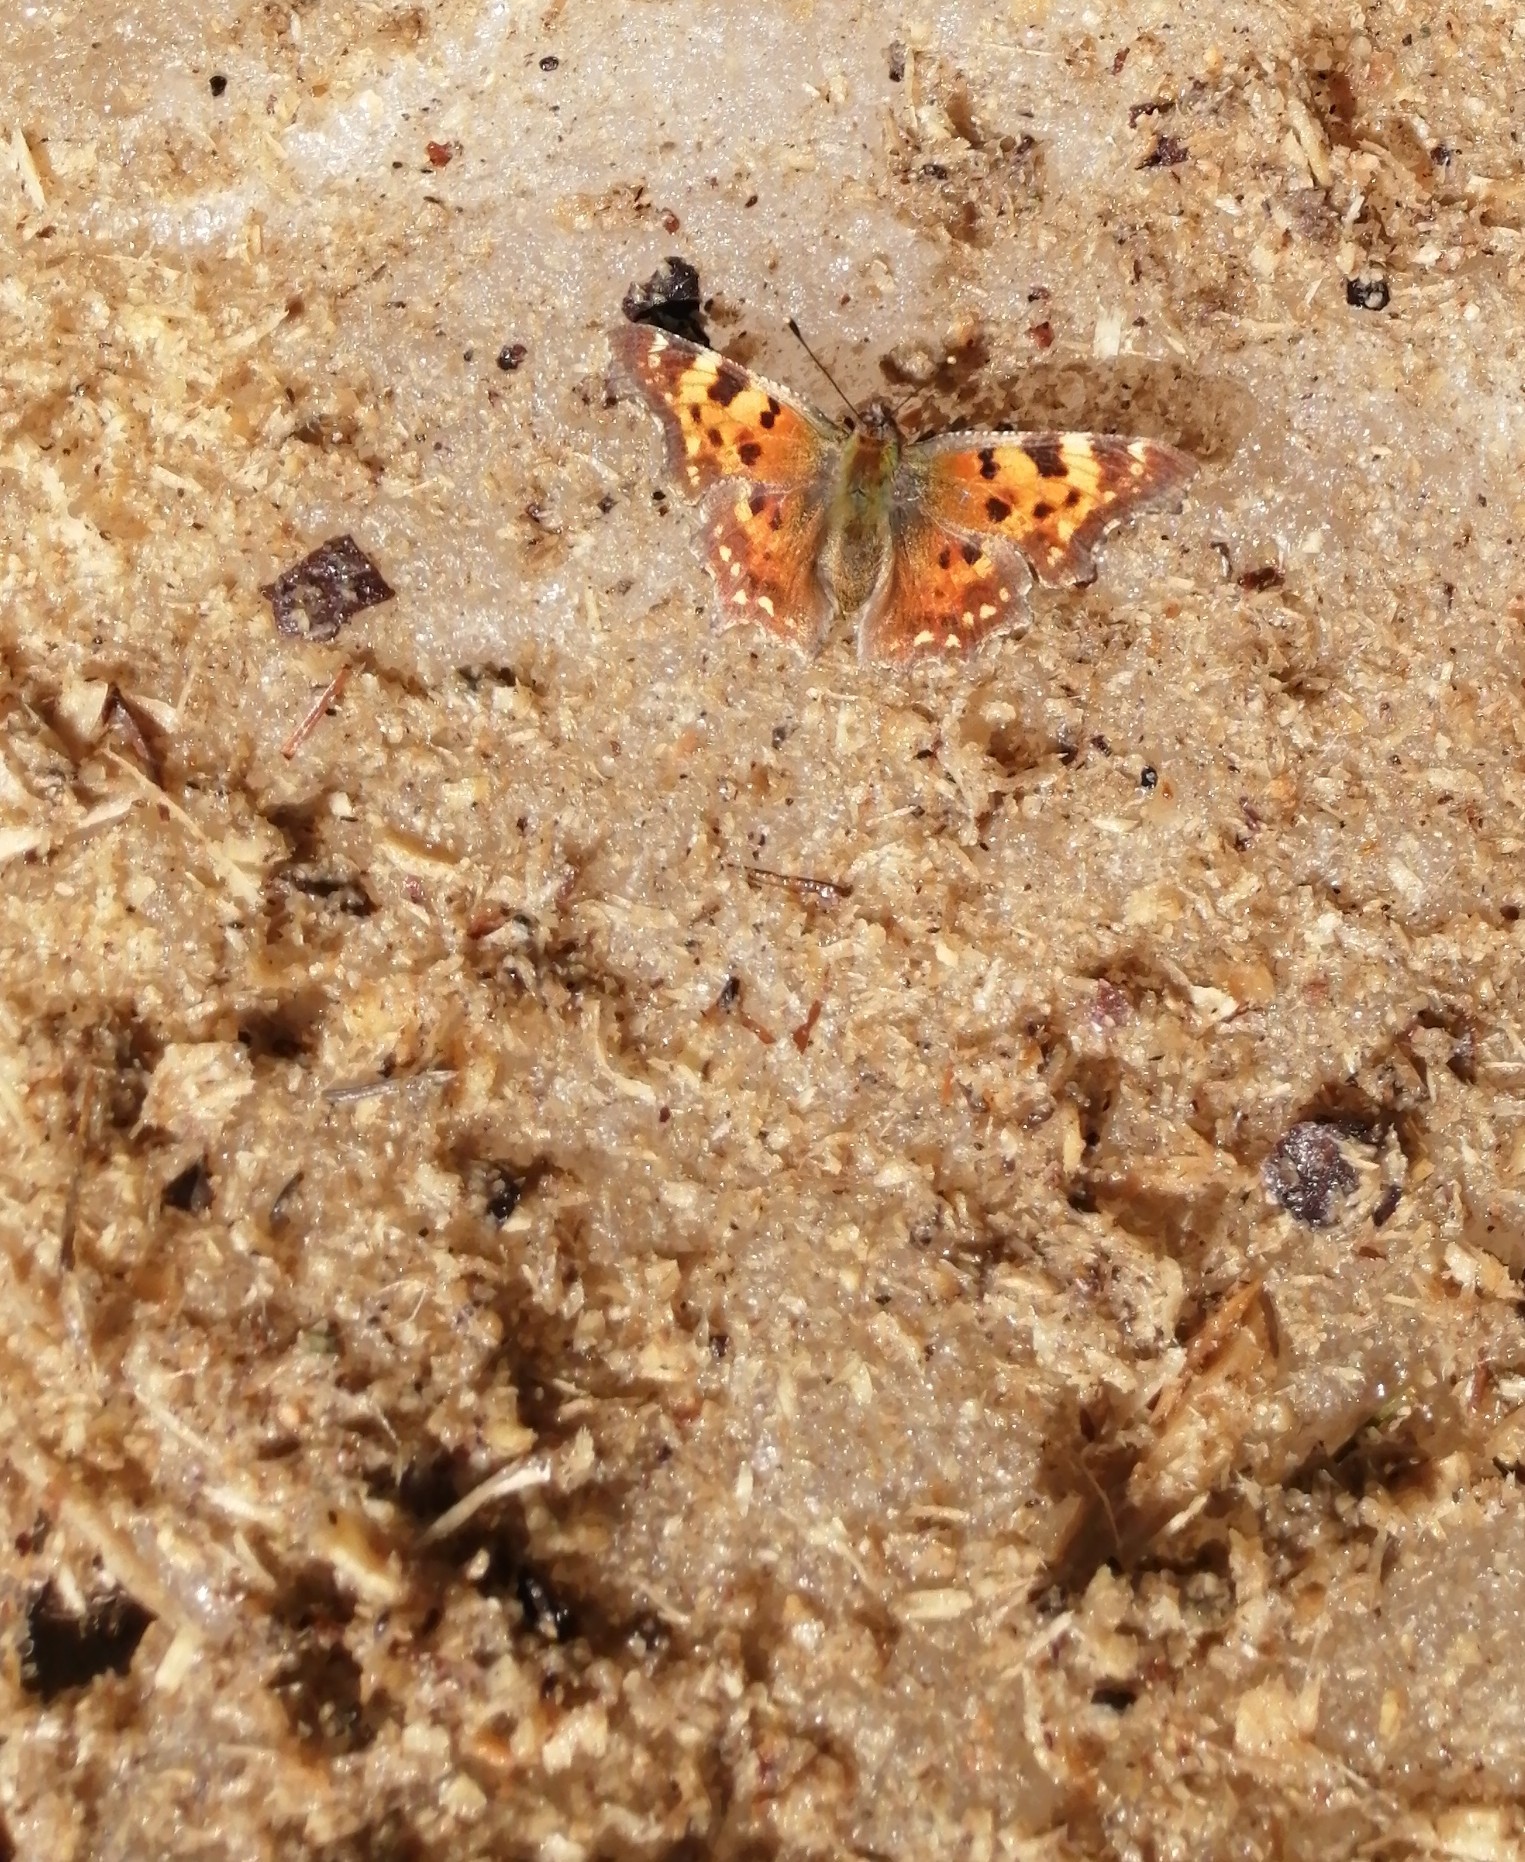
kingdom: Animalia
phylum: Arthropoda
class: Insecta
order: Lepidoptera
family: Nymphalidae
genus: Polygonia
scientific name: Polygonia c-album
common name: Comma
